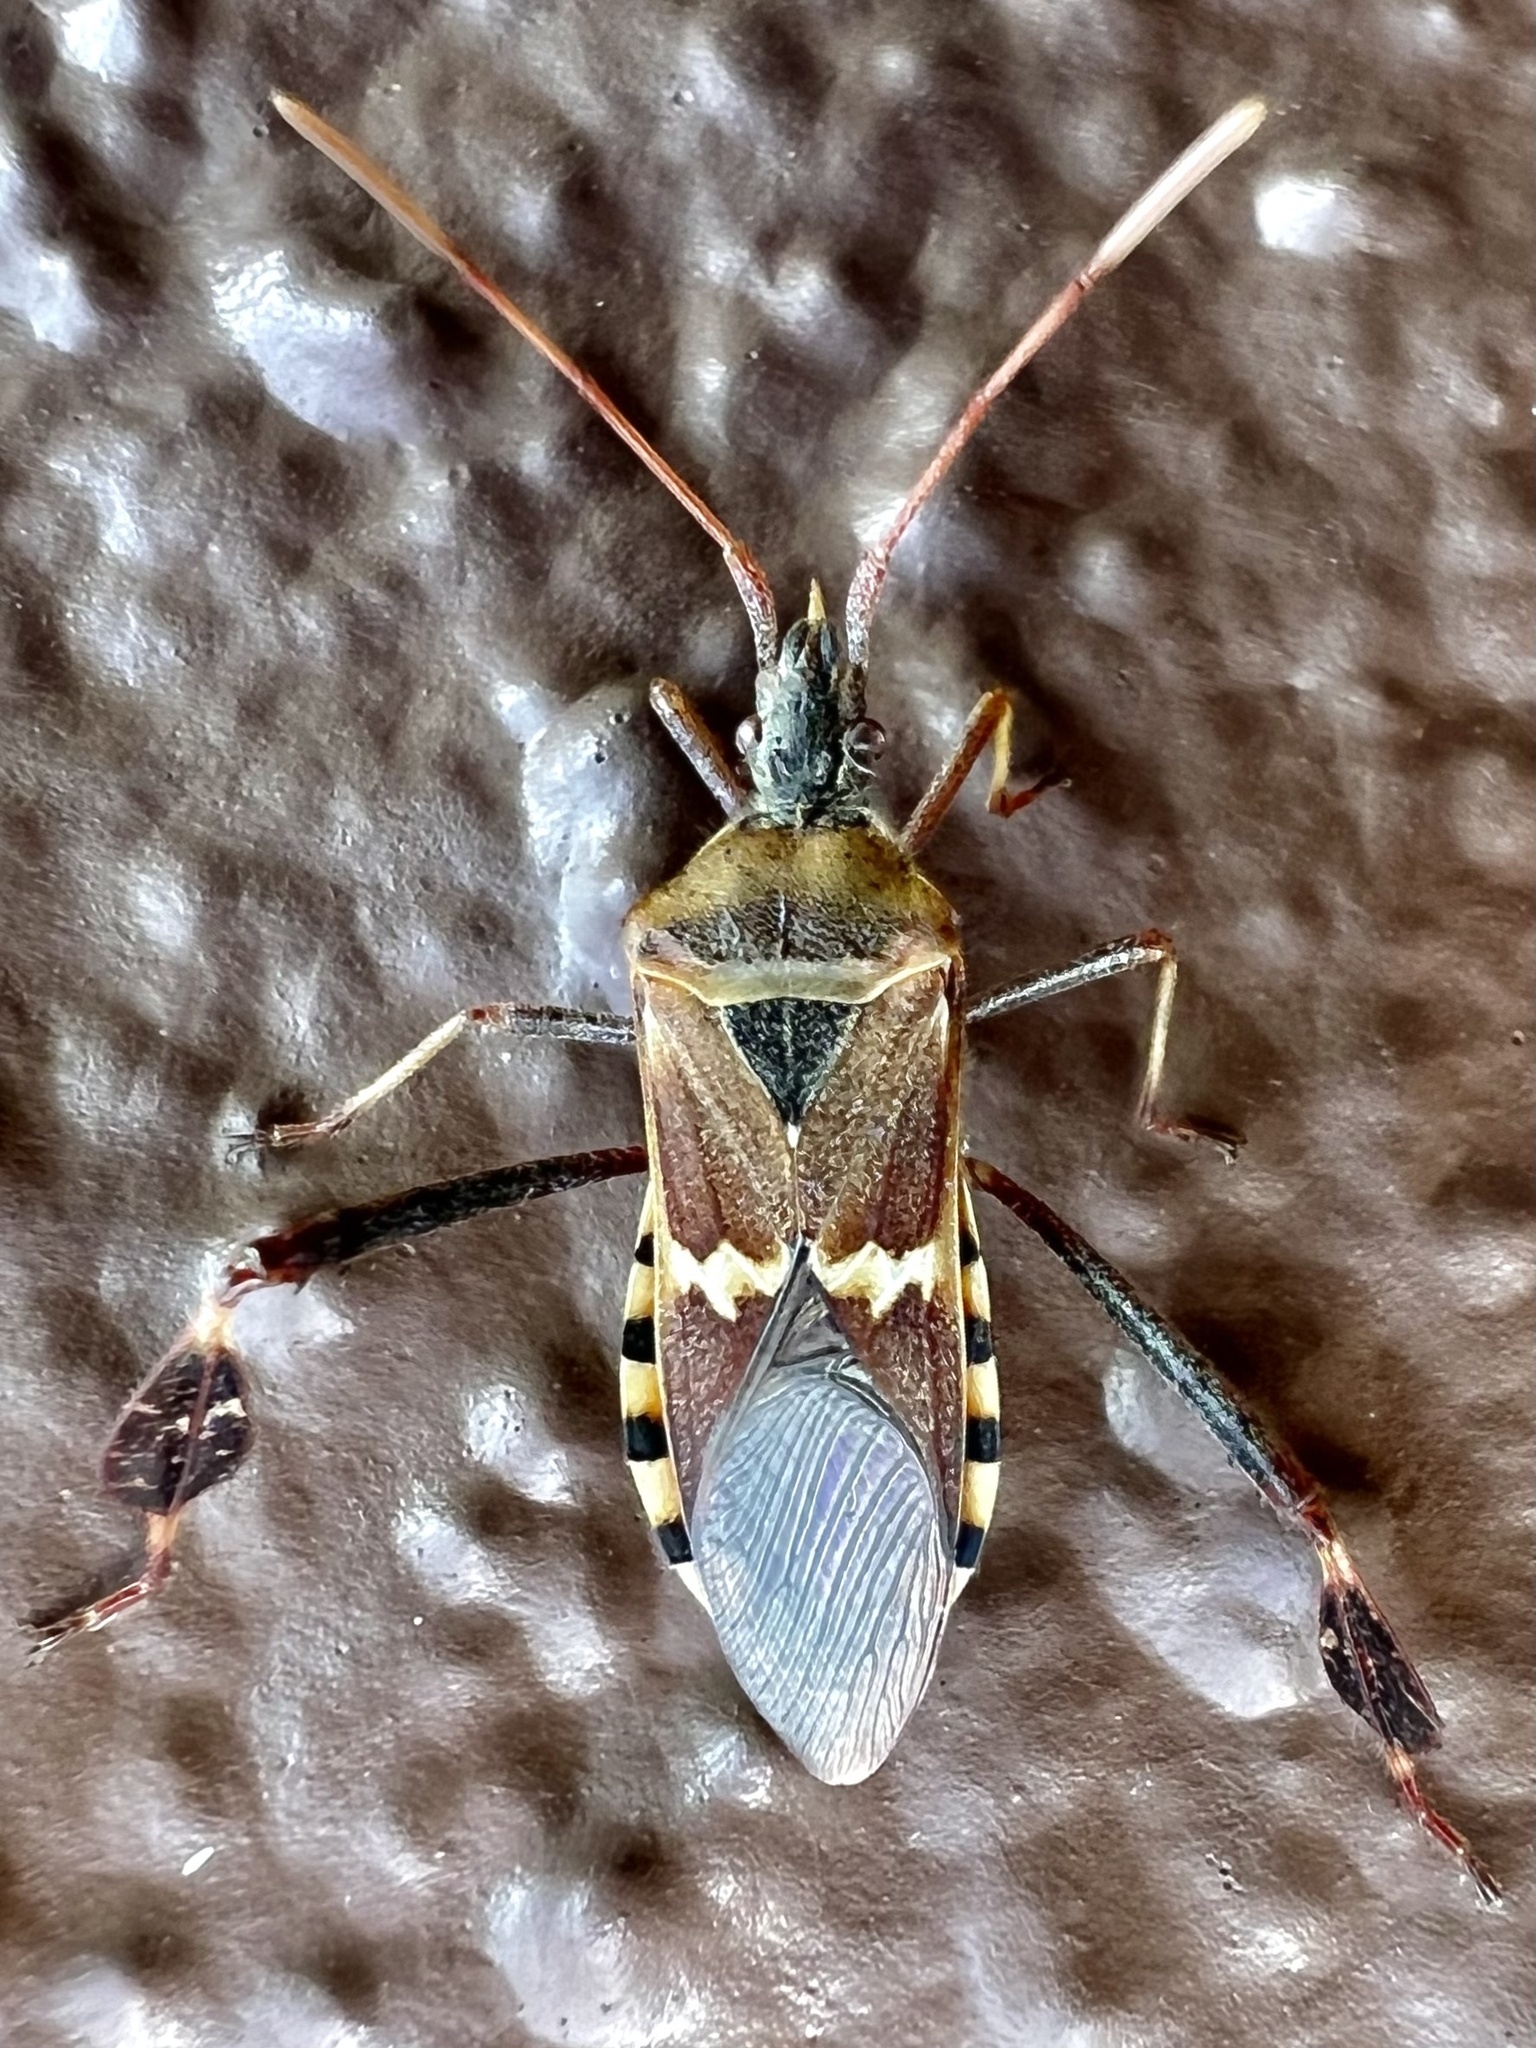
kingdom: Animalia
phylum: Arthropoda
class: Insecta
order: Hemiptera
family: Coreidae
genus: Leptoglossus
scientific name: Leptoglossus clypealis
